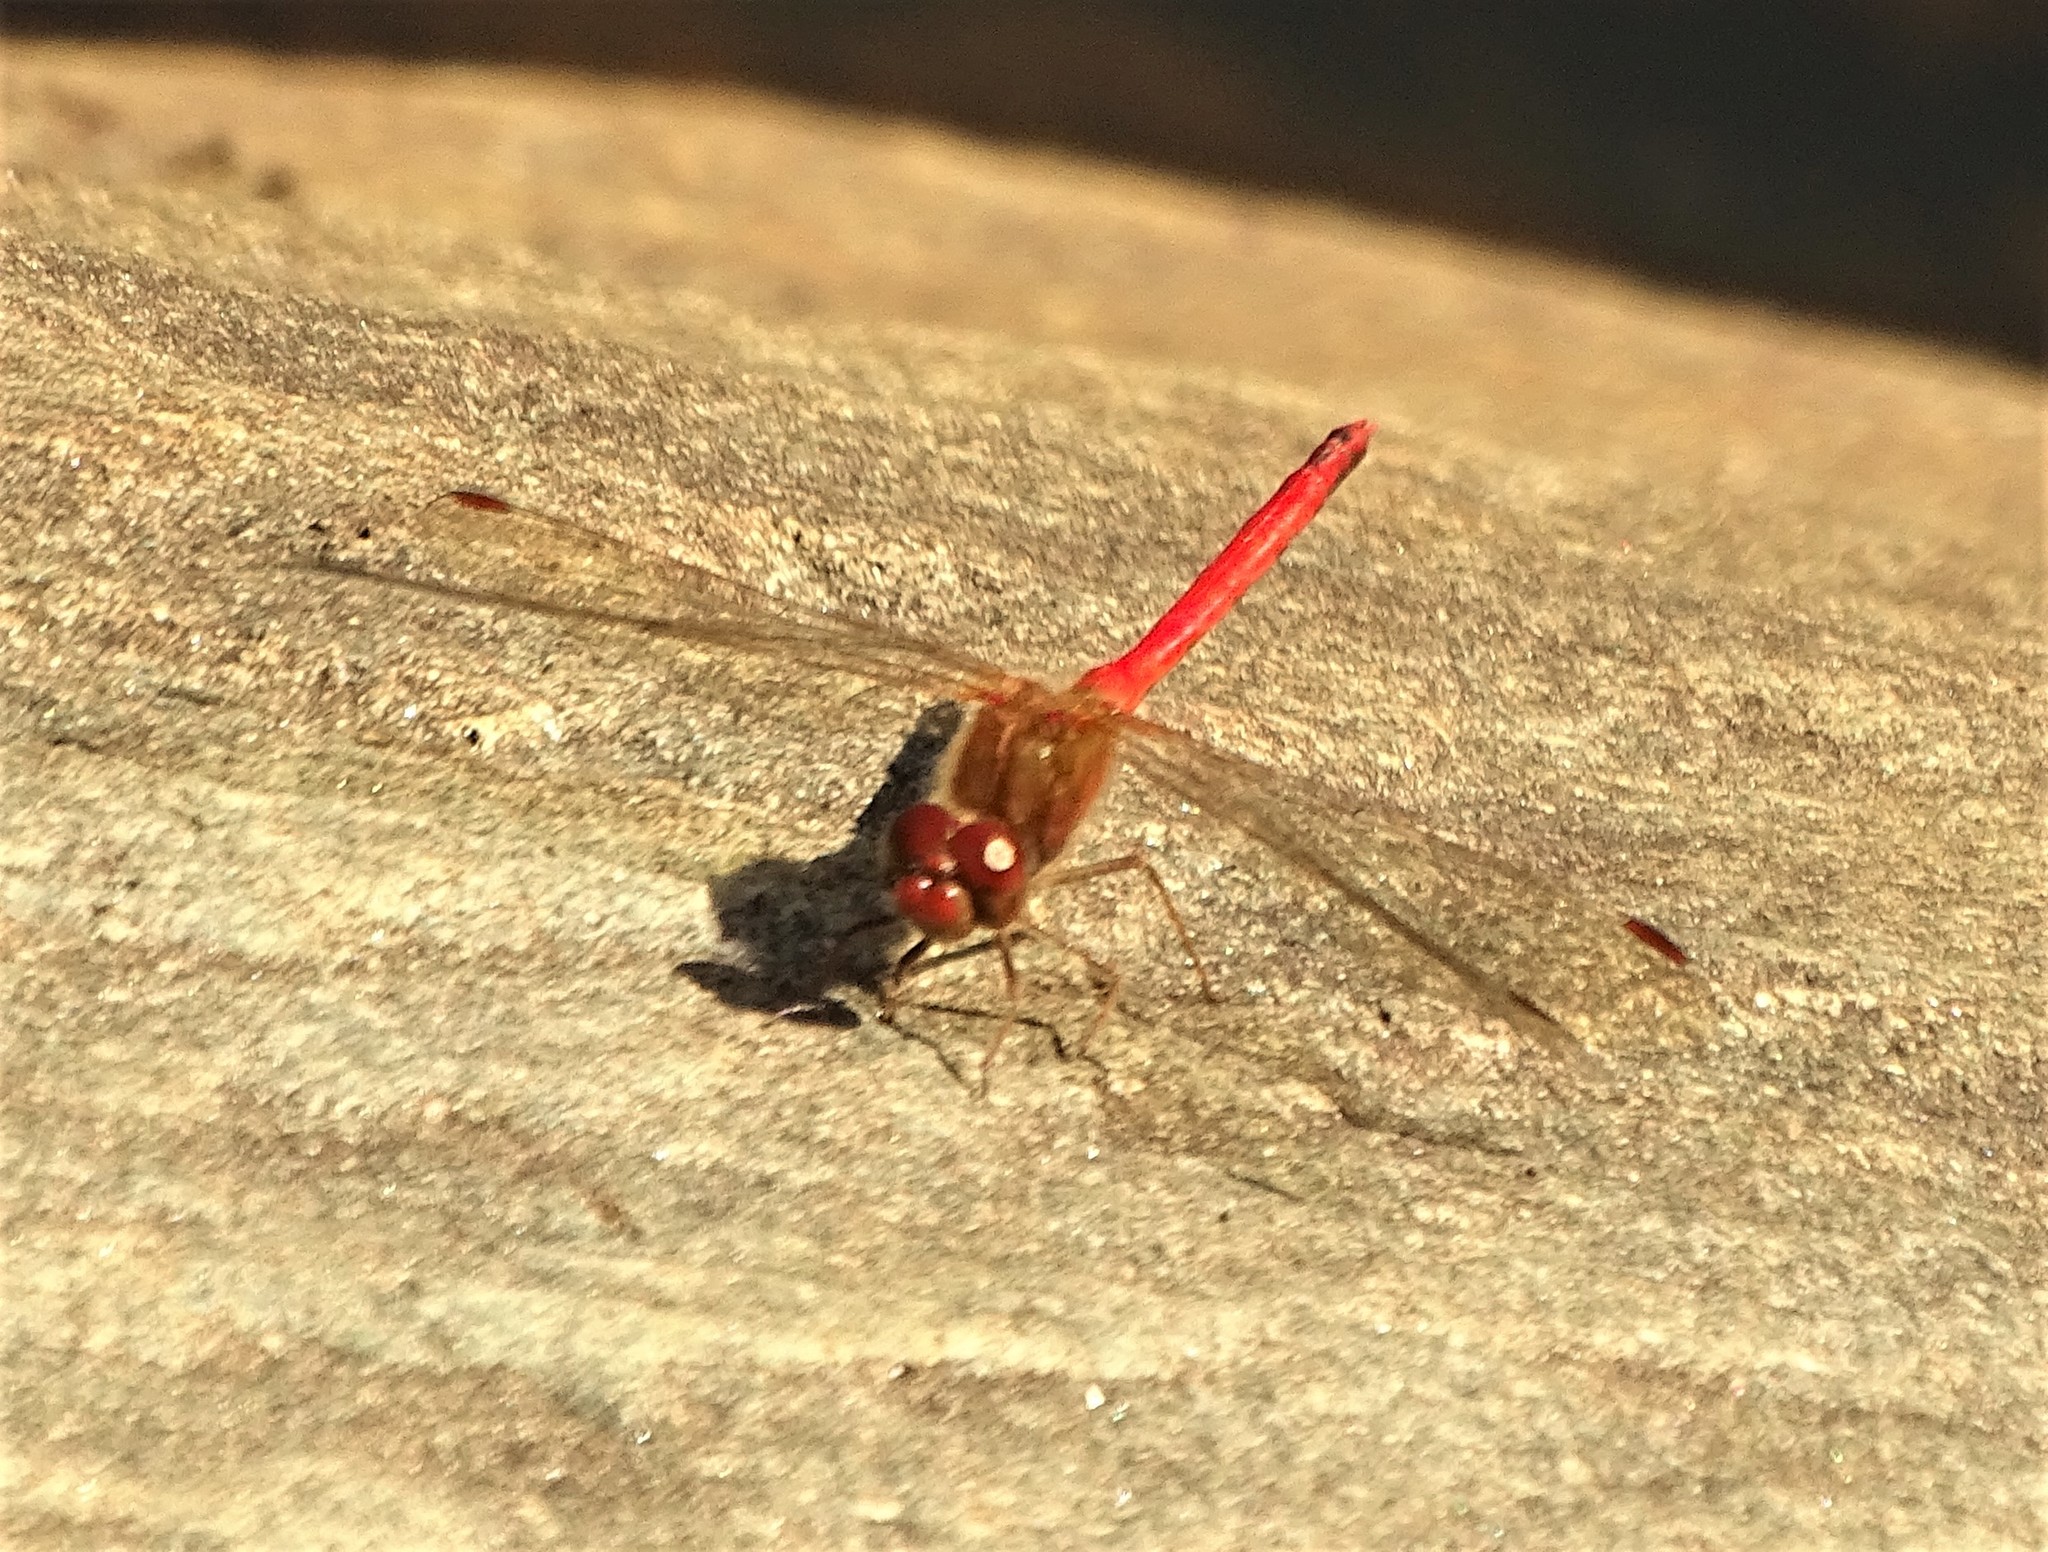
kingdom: Animalia
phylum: Arthropoda
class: Insecta
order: Odonata
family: Libellulidae
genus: Sympetrum
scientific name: Sympetrum vicinum
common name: Autumn meadowhawk
